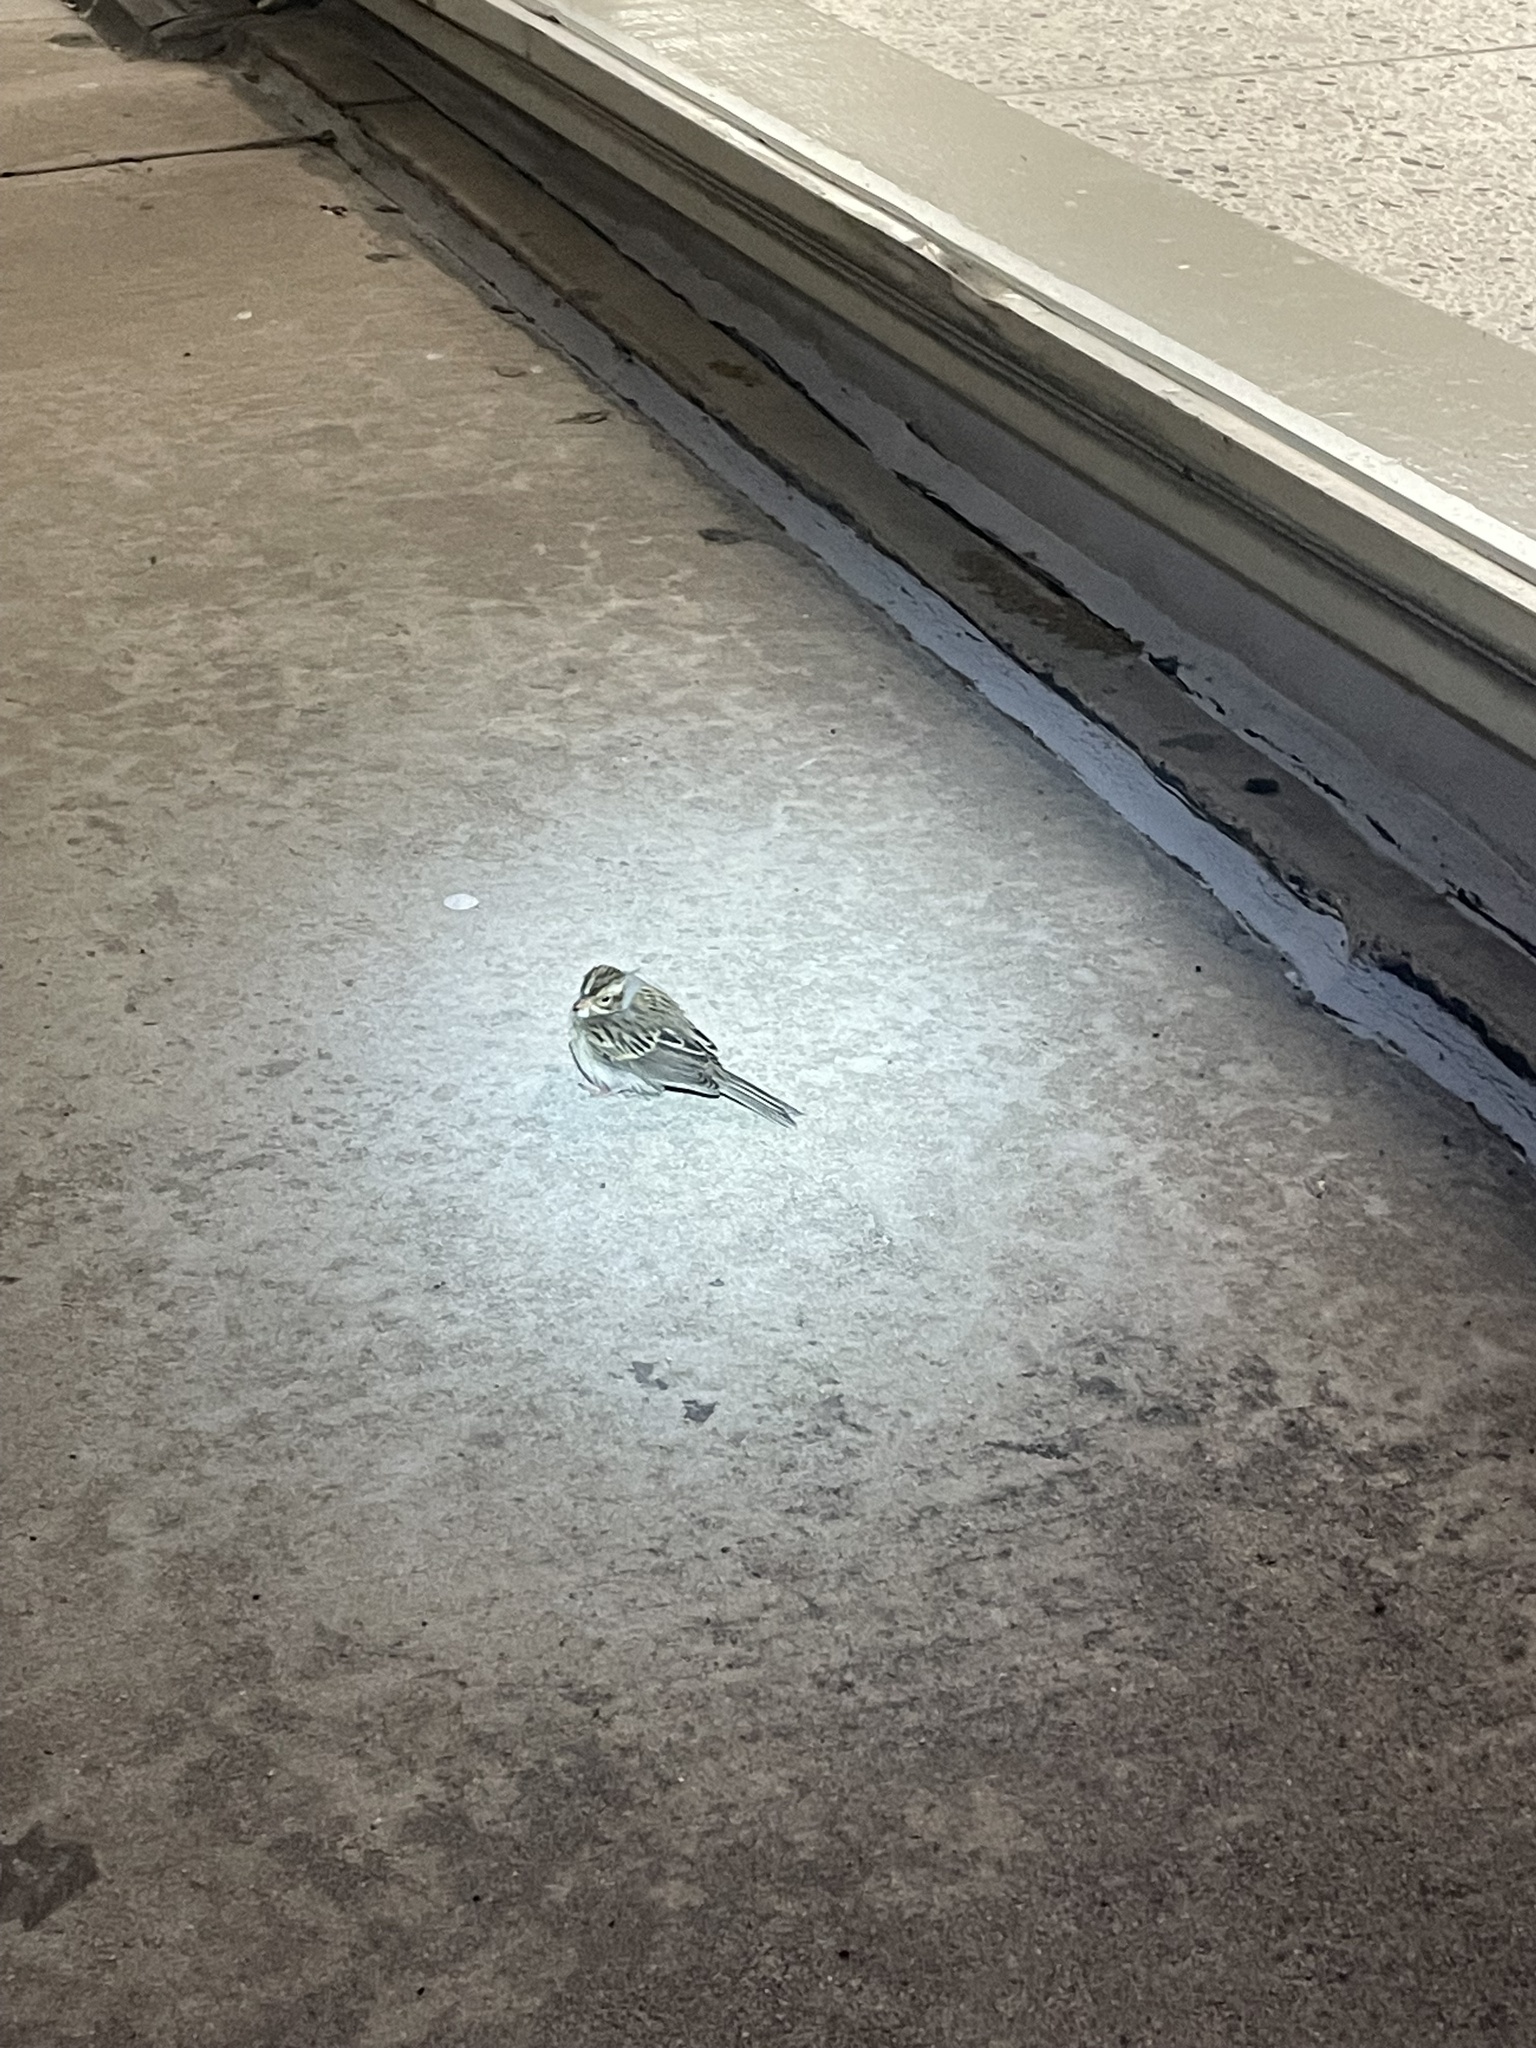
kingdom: Animalia
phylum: Chordata
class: Aves
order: Passeriformes
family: Passerellidae
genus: Spizella
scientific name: Spizella pallida
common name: Clay-colored sparrow
